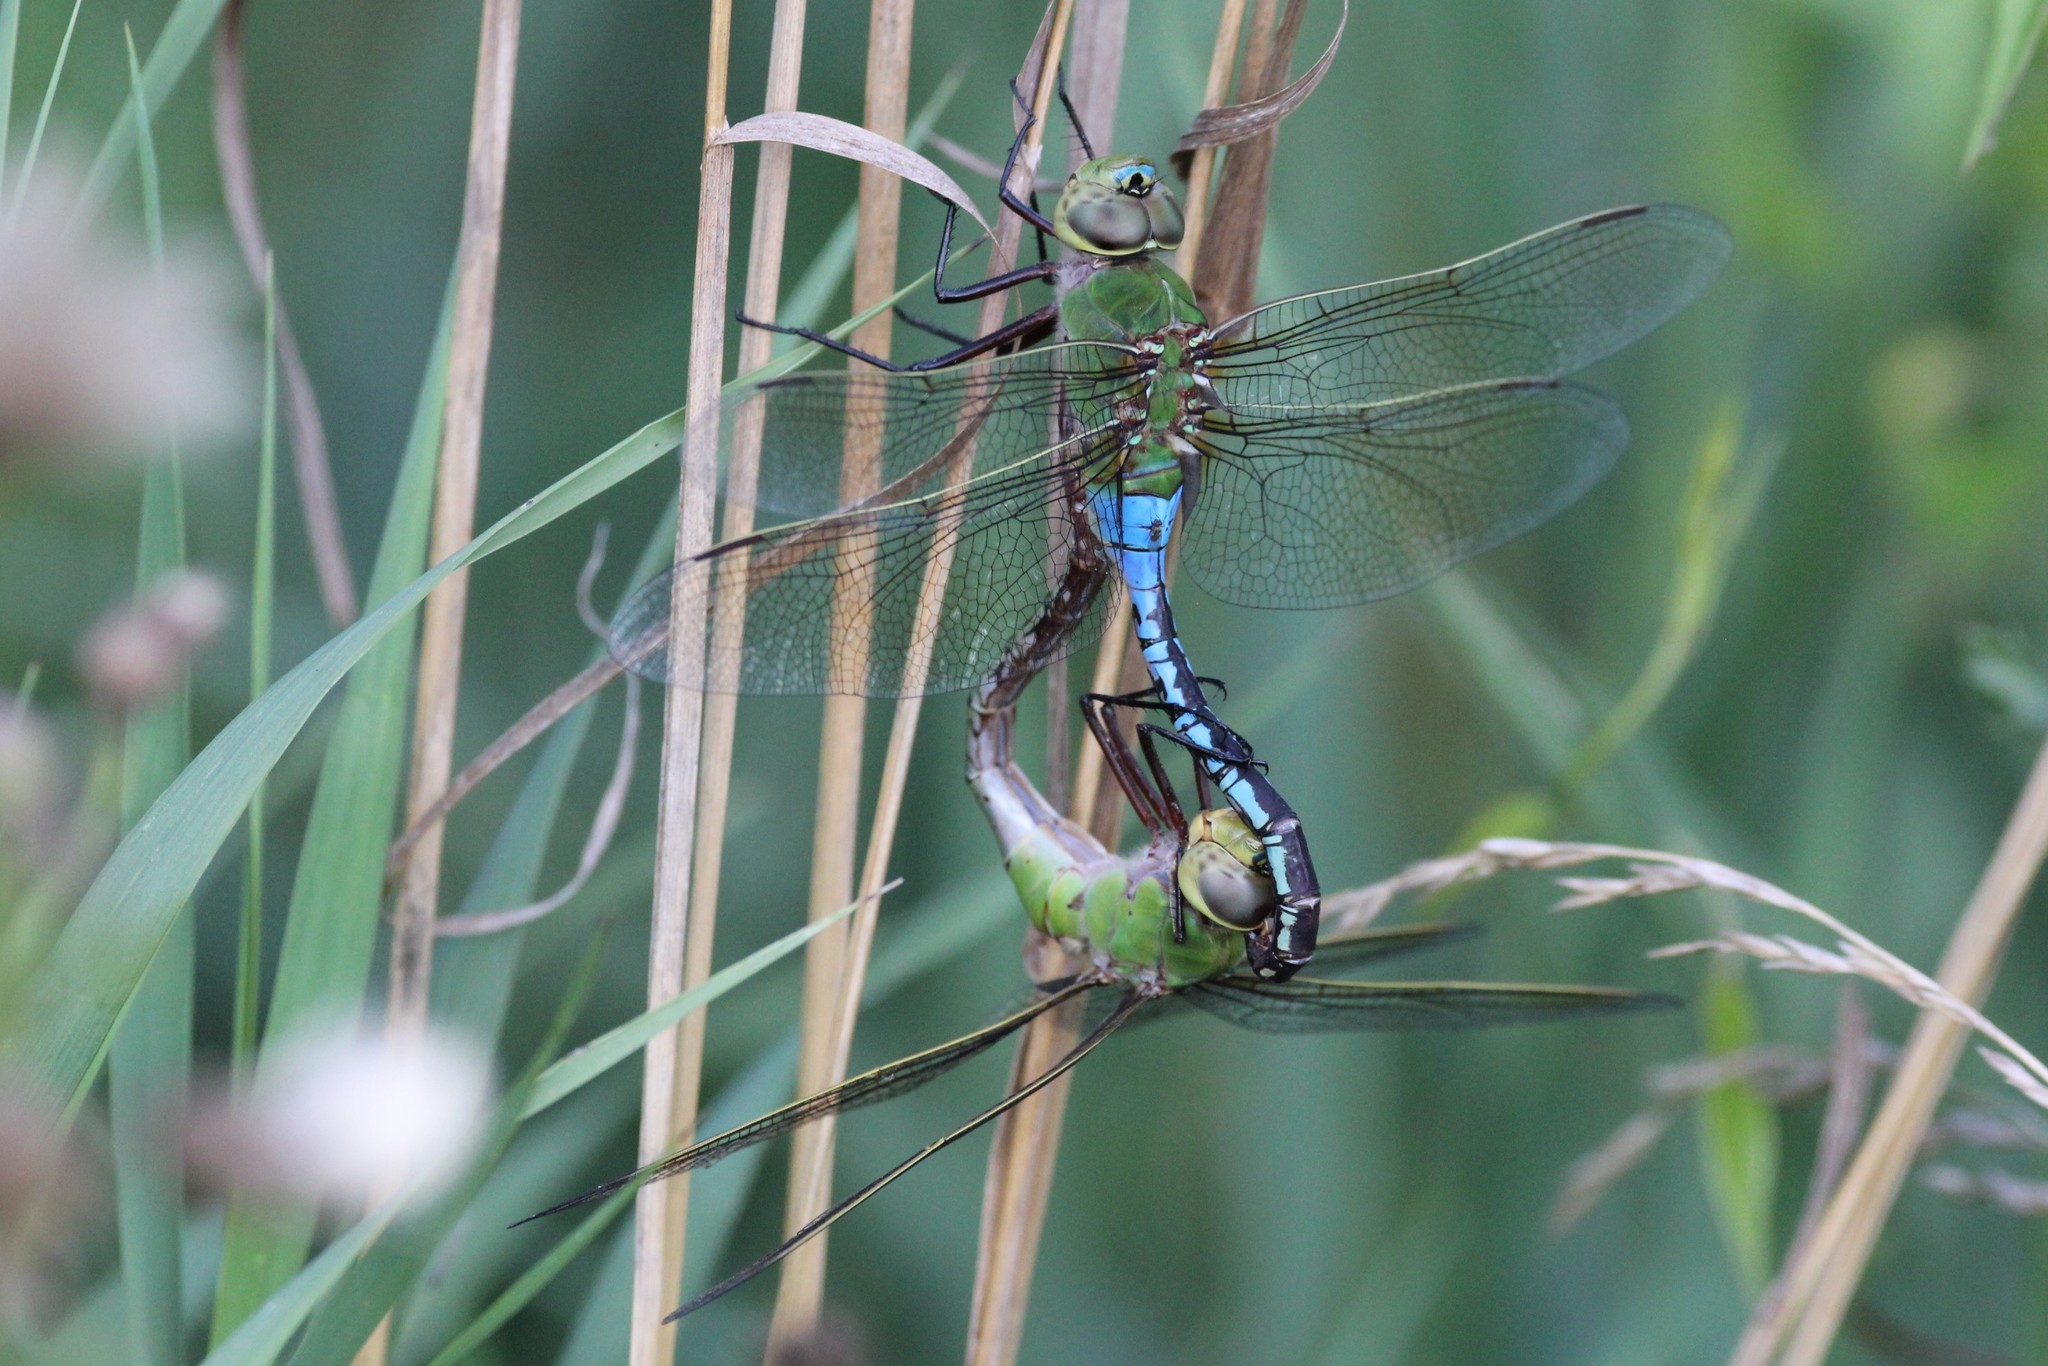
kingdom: Animalia
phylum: Arthropoda
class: Insecta
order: Odonata
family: Aeshnidae
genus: Anax
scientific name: Anax junius
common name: Common green darner
